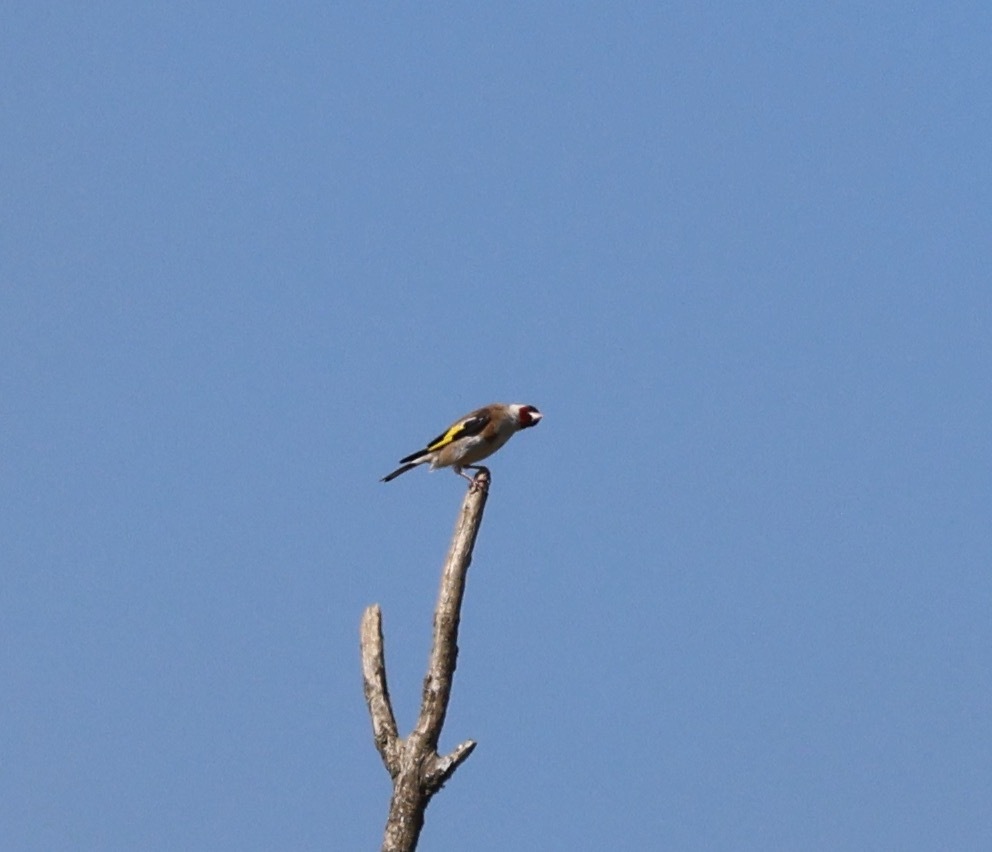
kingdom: Animalia
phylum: Chordata
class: Aves
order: Passeriformes
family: Fringillidae
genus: Carduelis
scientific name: Carduelis carduelis
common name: European goldfinch
